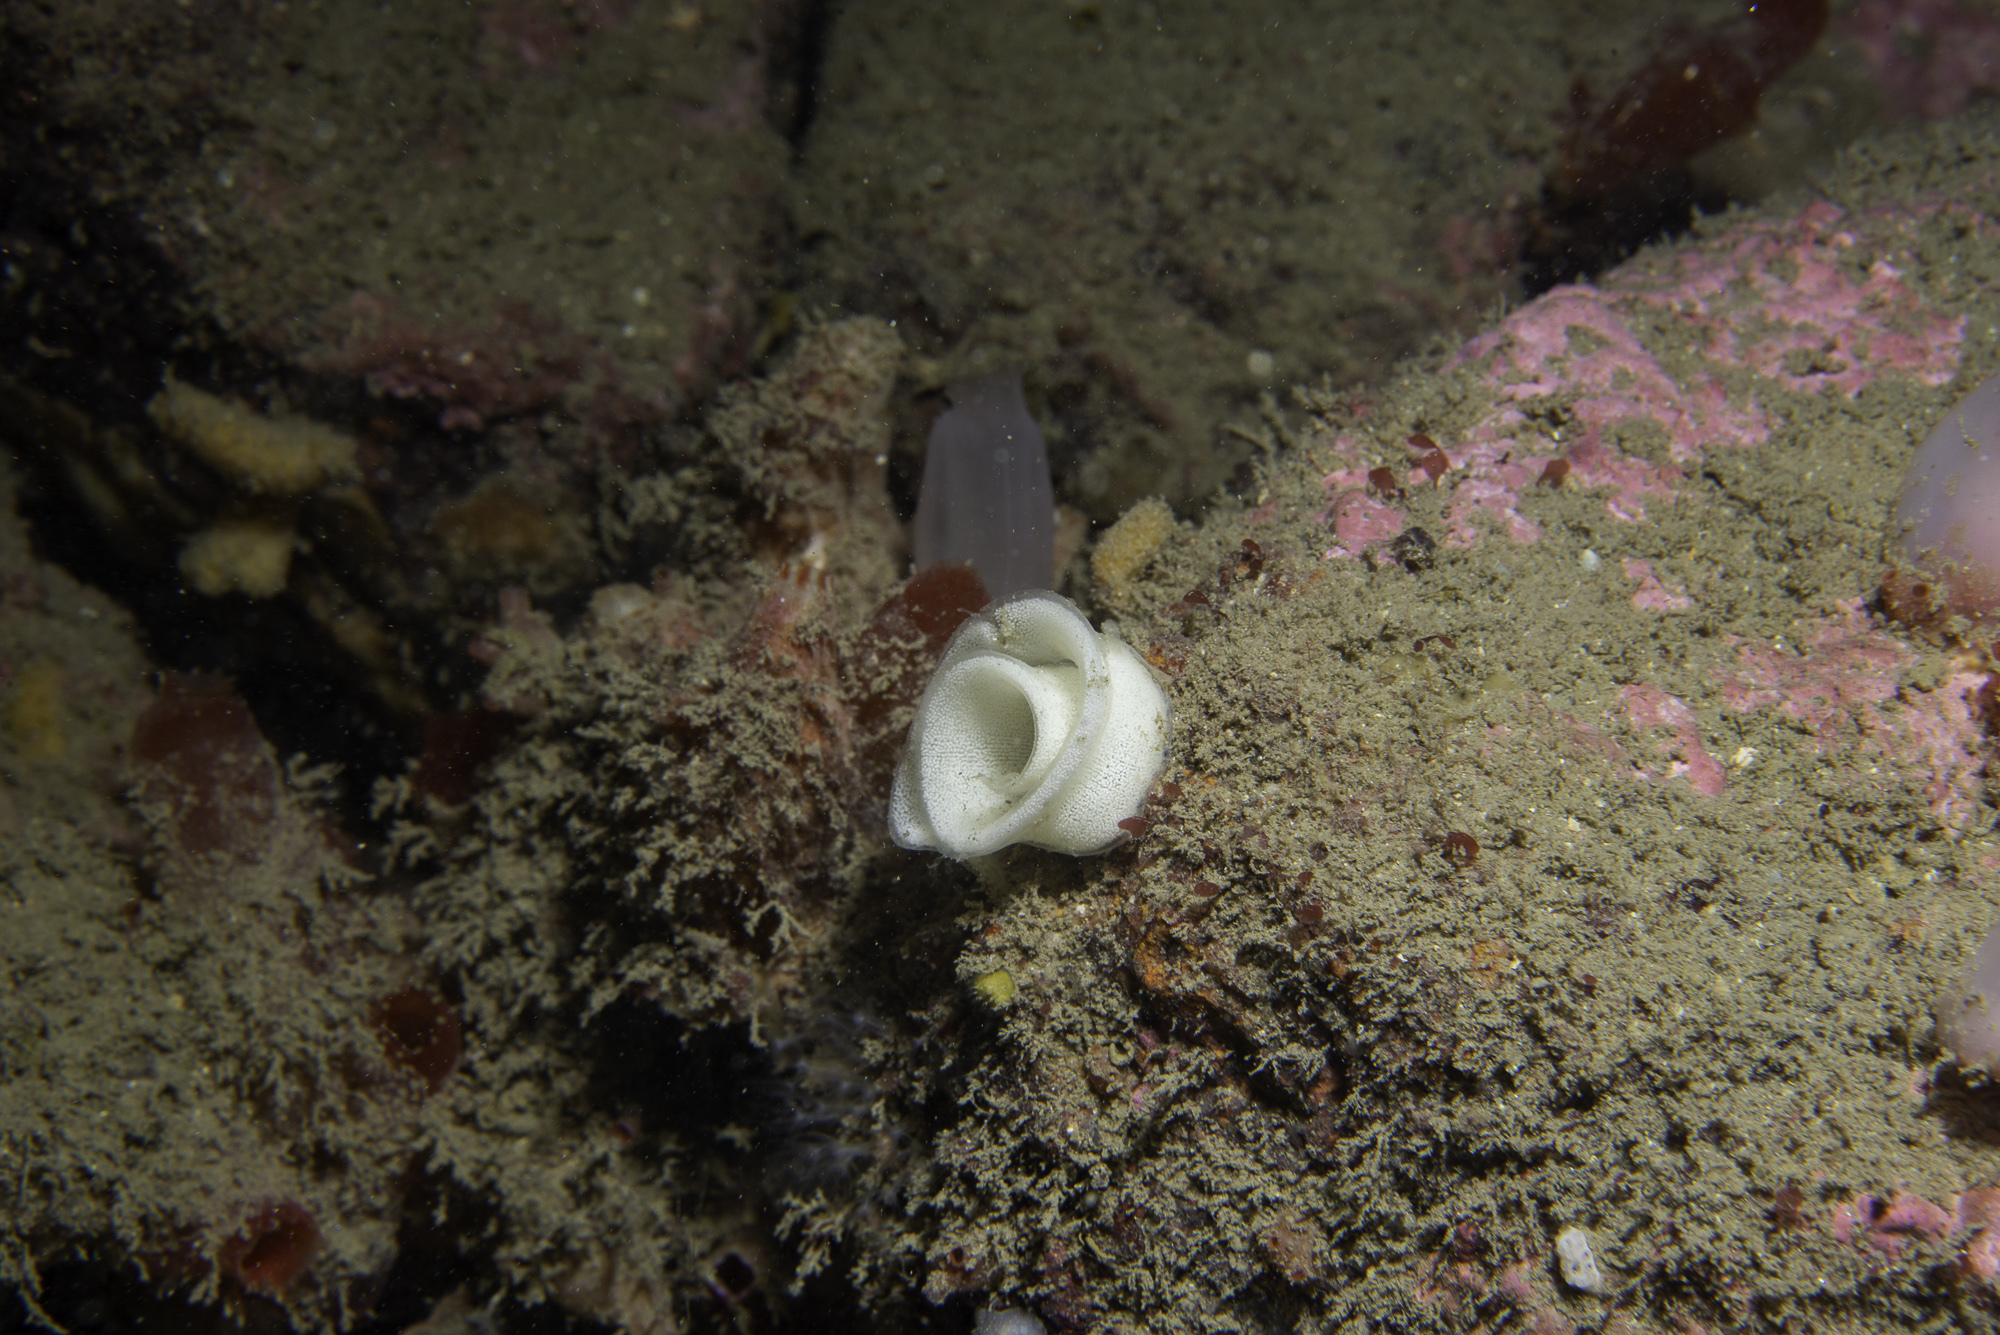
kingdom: Animalia
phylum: Mollusca
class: Gastropoda
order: Nudibranchia
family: Dorididae
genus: Doris
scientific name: Doris pseudoargus
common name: Sea lemon
